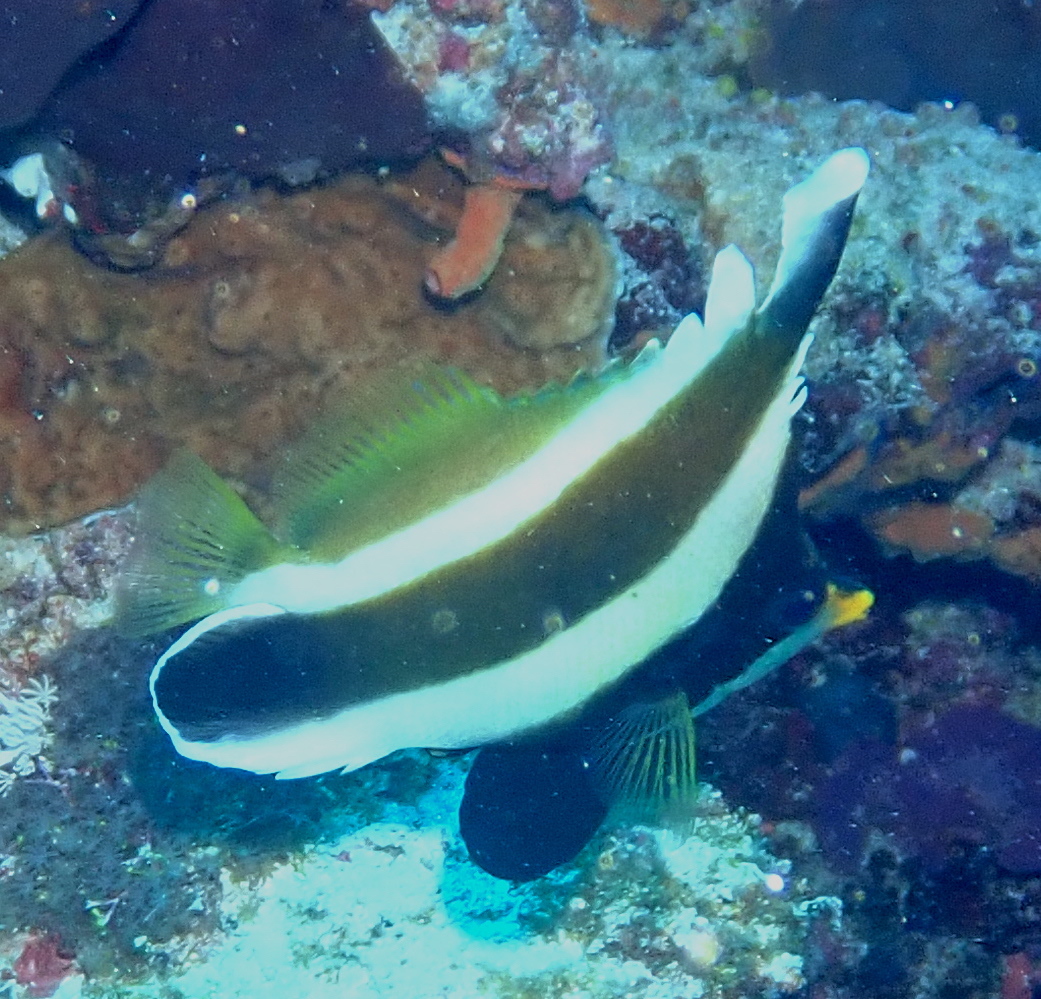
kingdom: Animalia
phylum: Chordata
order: Perciformes
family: Chaetodontidae
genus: Heniochus
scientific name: Heniochus chrysostomus
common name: Horned bannerfish
